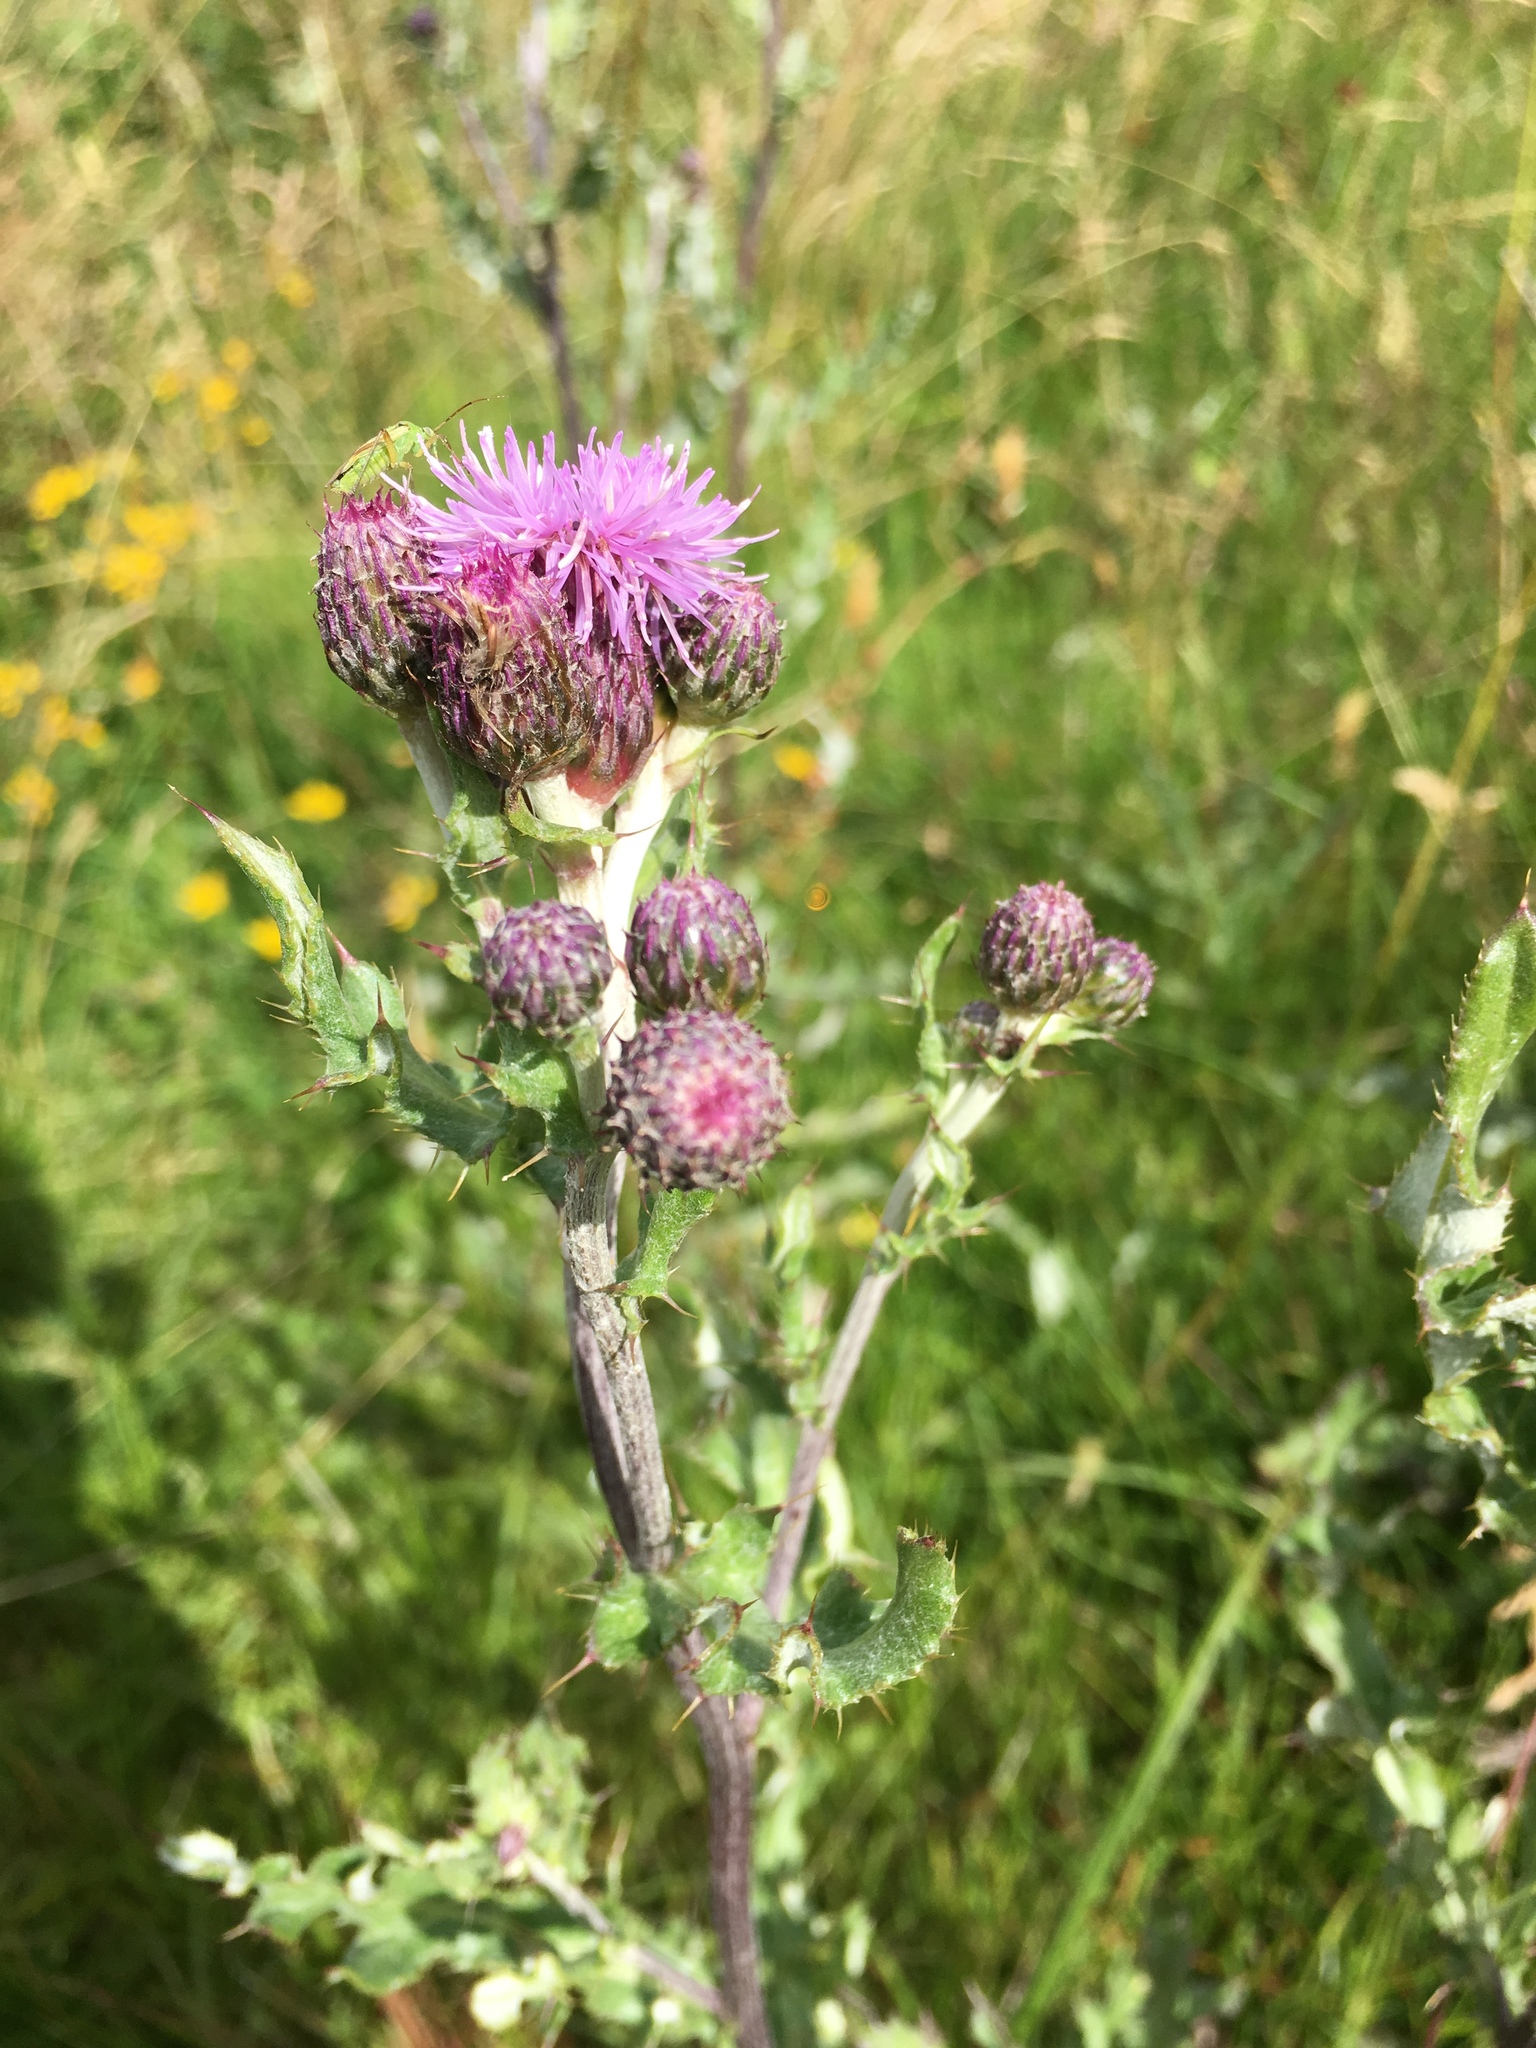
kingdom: Plantae
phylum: Tracheophyta
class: Magnoliopsida
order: Asterales
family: Asteraceae
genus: Cirsium
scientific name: Cirsium arvense
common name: Creeping thistle
